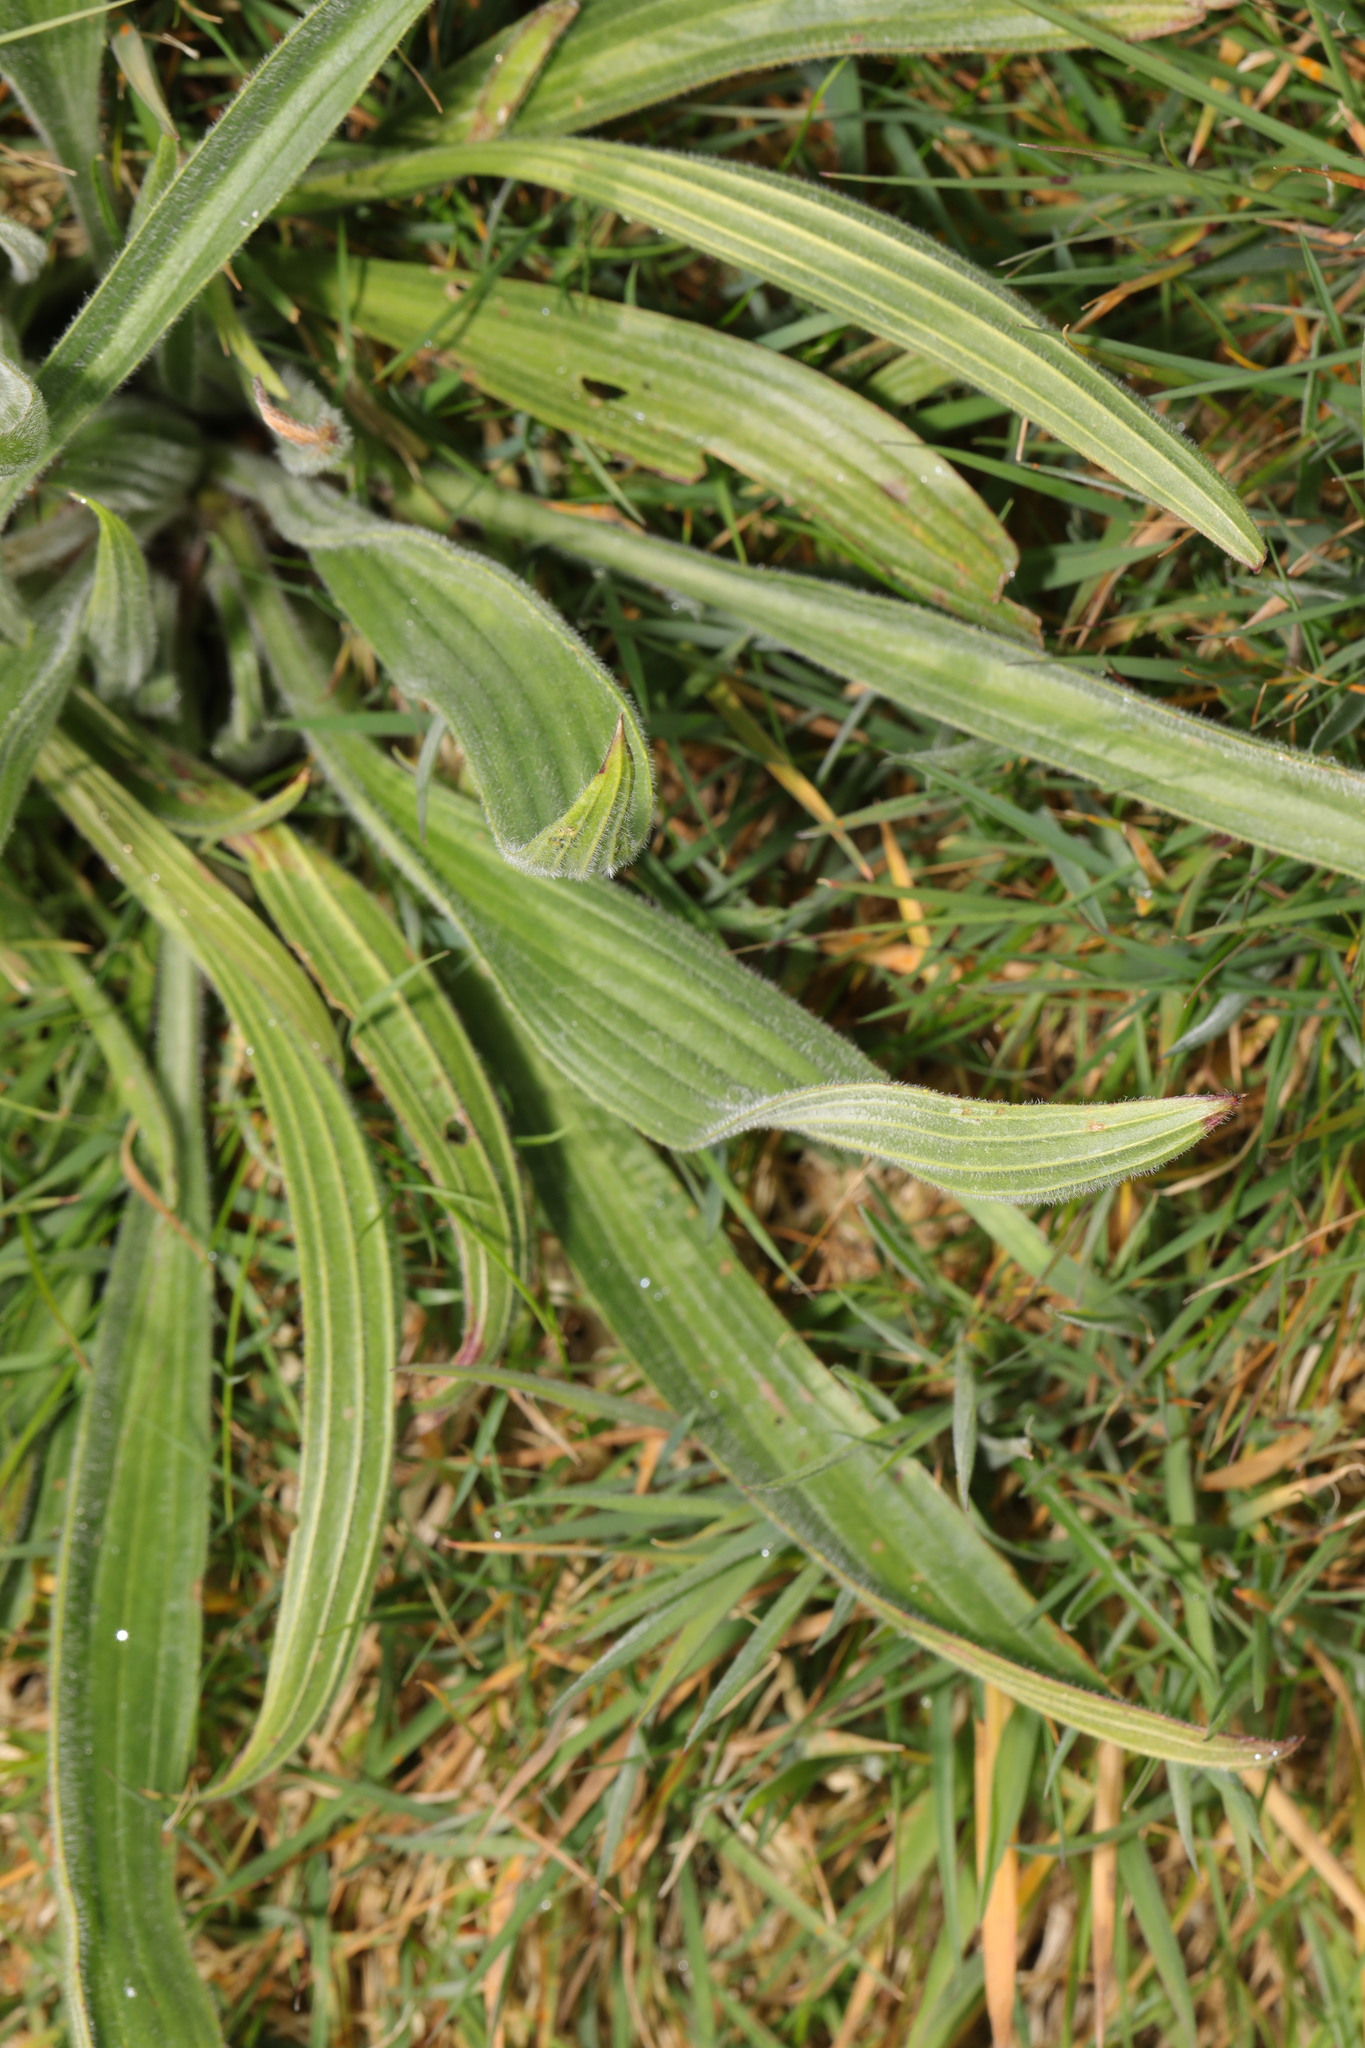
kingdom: Plantae
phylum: Tracheophyta
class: Magnoliopsida
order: Lamiales
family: Plantaginaceae
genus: Plantago
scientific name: Plantago lanceolata
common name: Ribwort plantain
